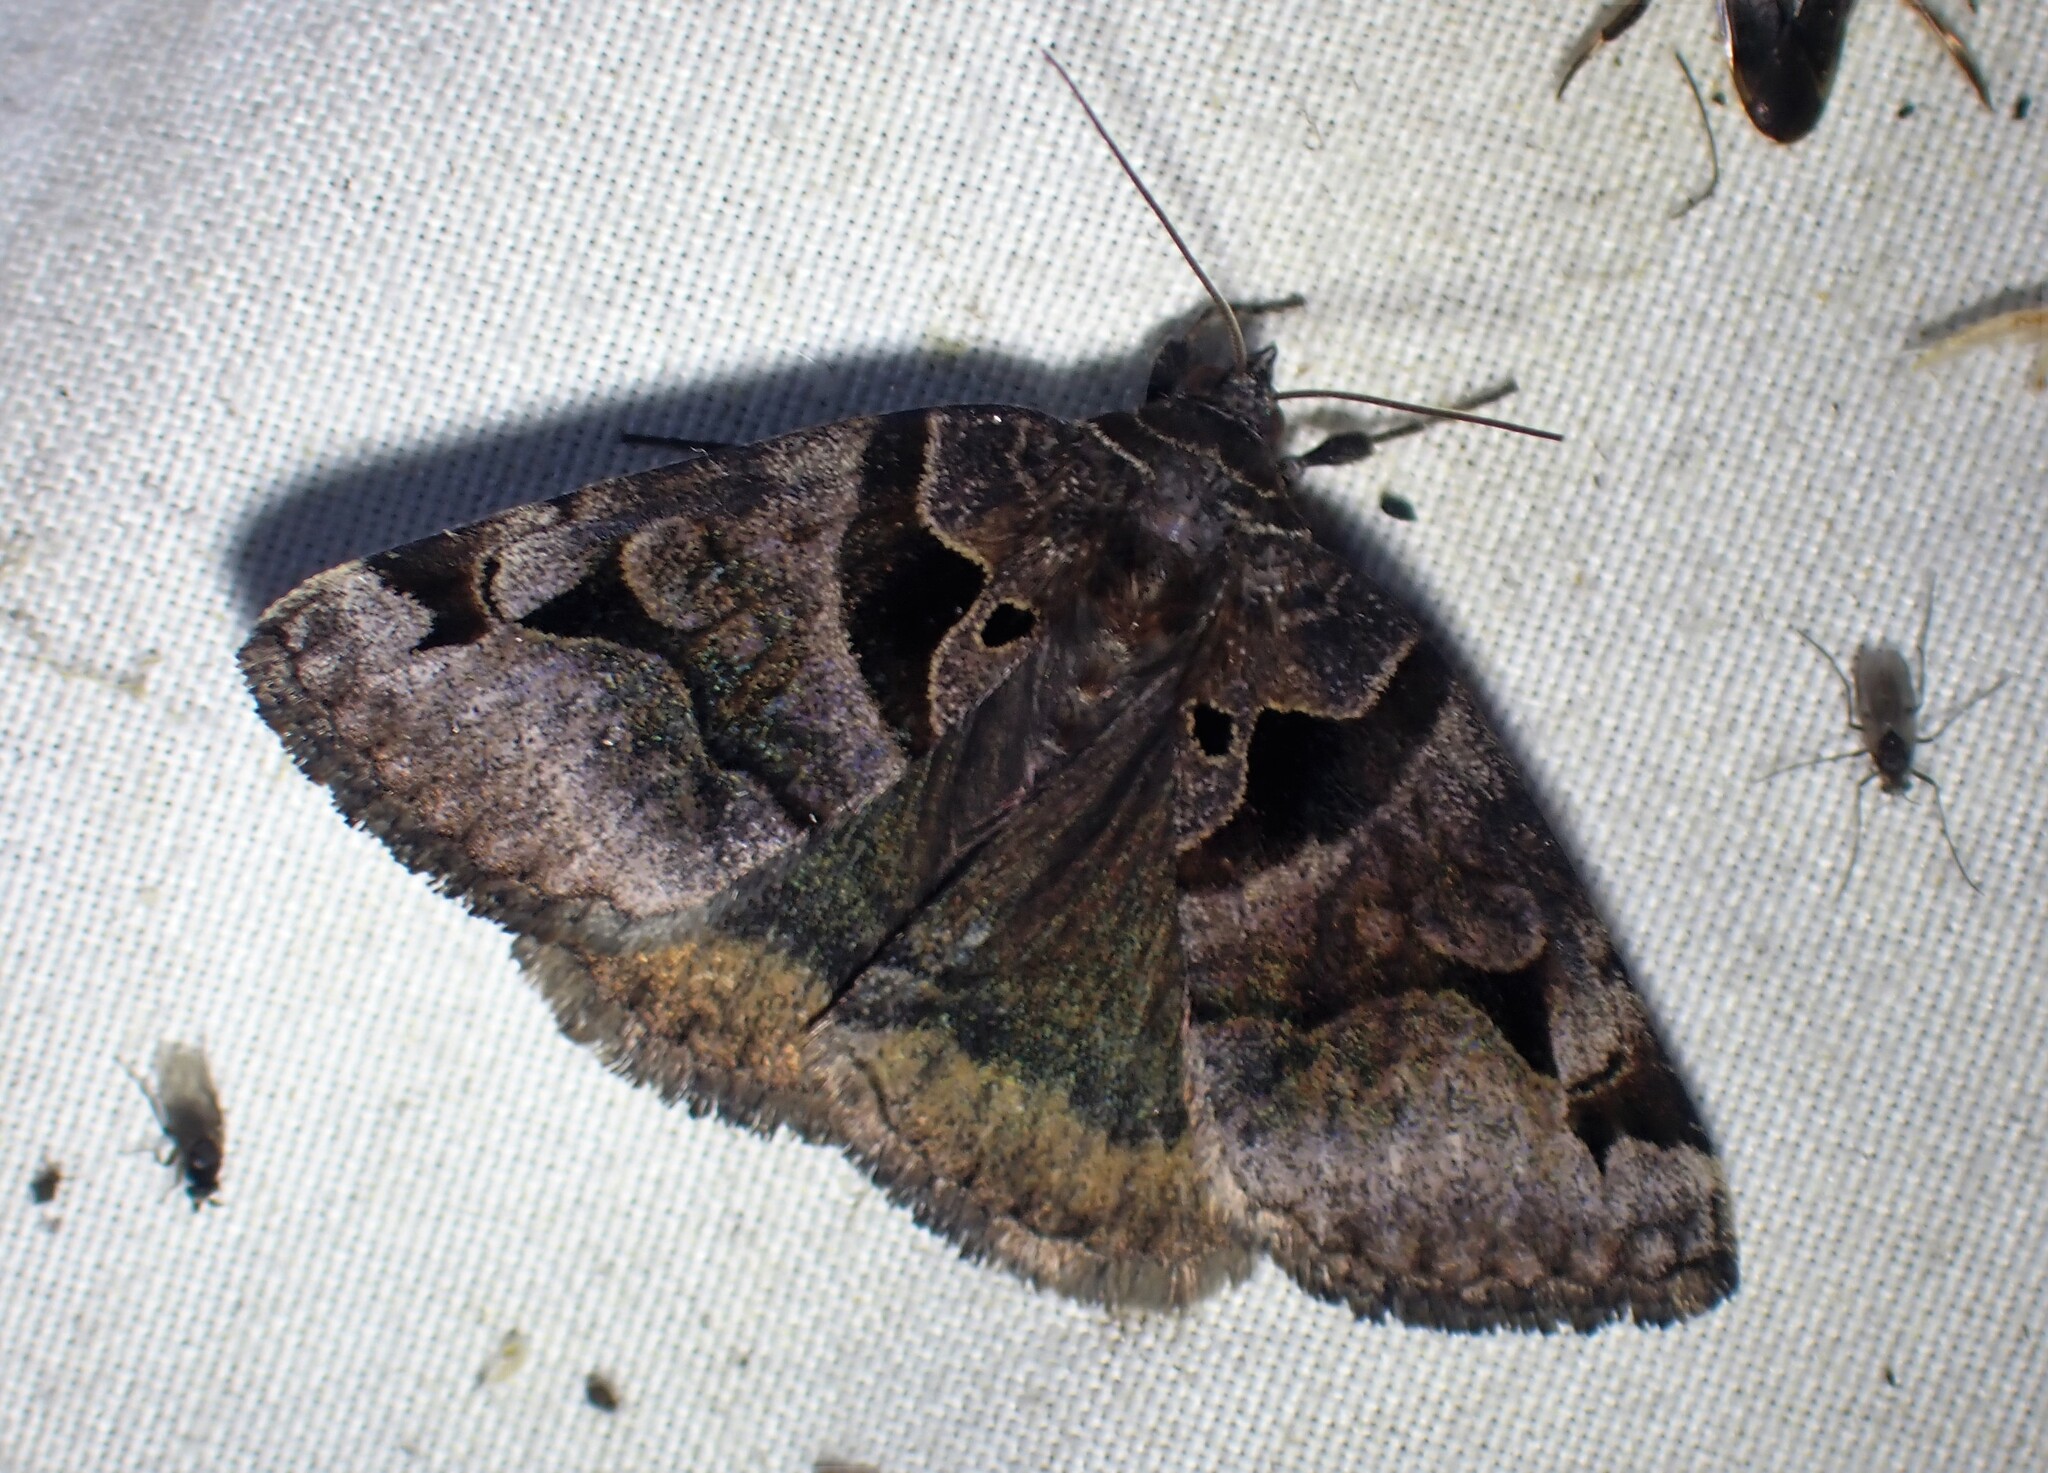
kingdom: Animalia
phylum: Arthropoda
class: Insecta
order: Lepidoptera
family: Erebidae
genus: Euclidia
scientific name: Euclidia cuspidea
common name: Toothed somberwing
